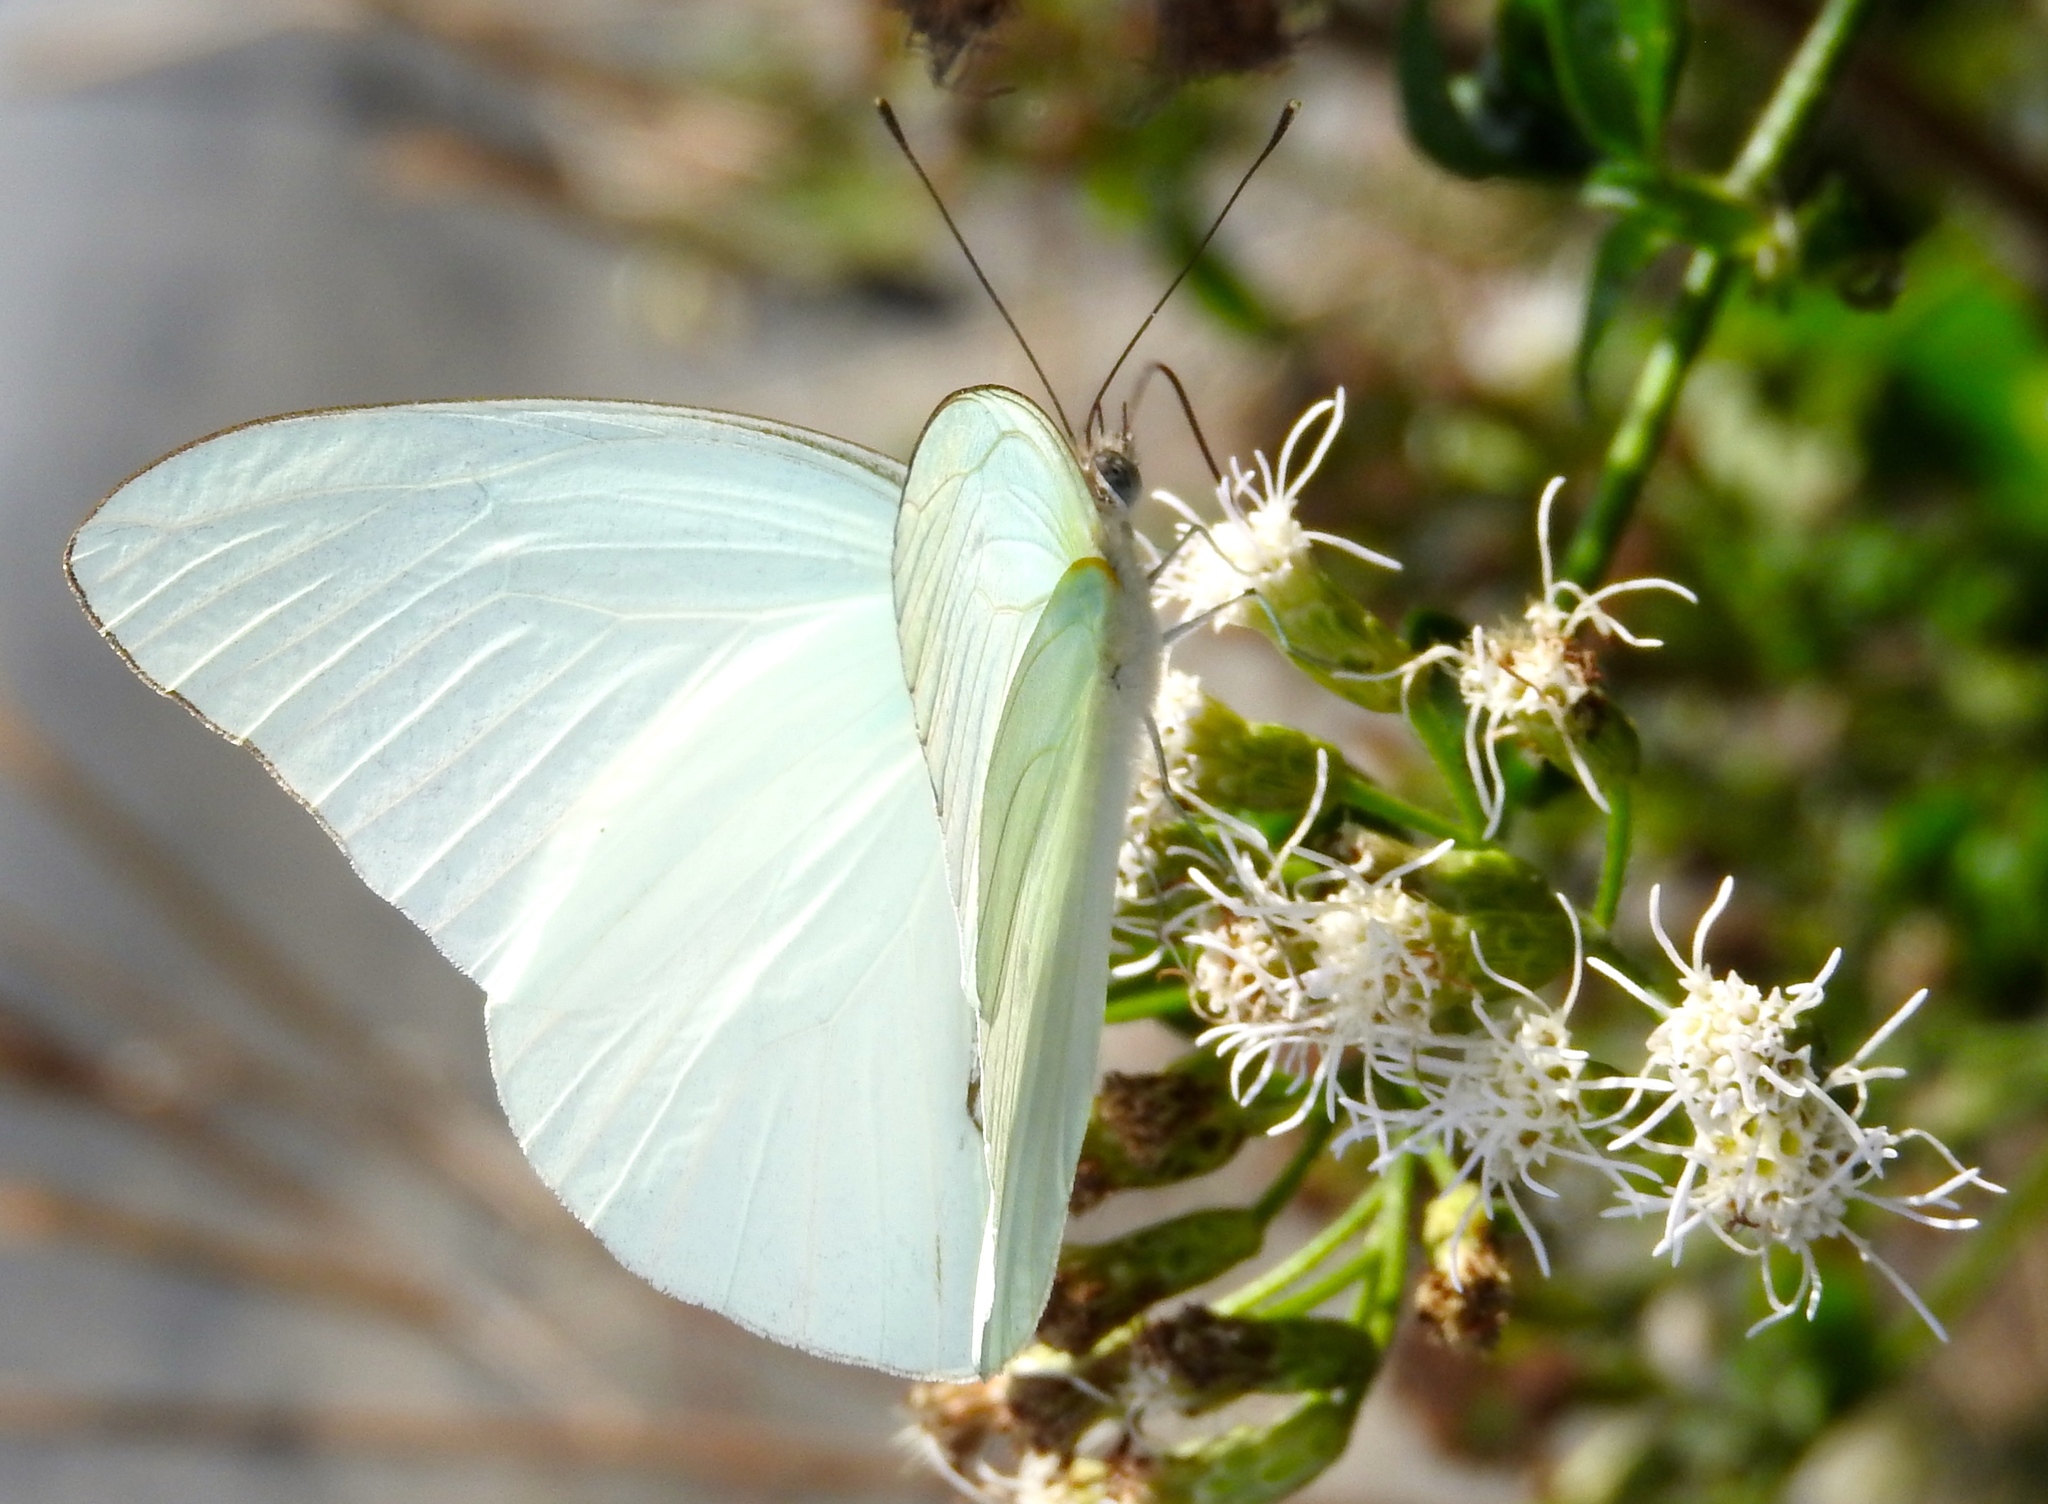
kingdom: Animalia
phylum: Arthropoda
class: Insecta
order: Lepidoptera
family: Pieridae
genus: Glutophrissa
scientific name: Glutophrissa drusilla
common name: Florida white
